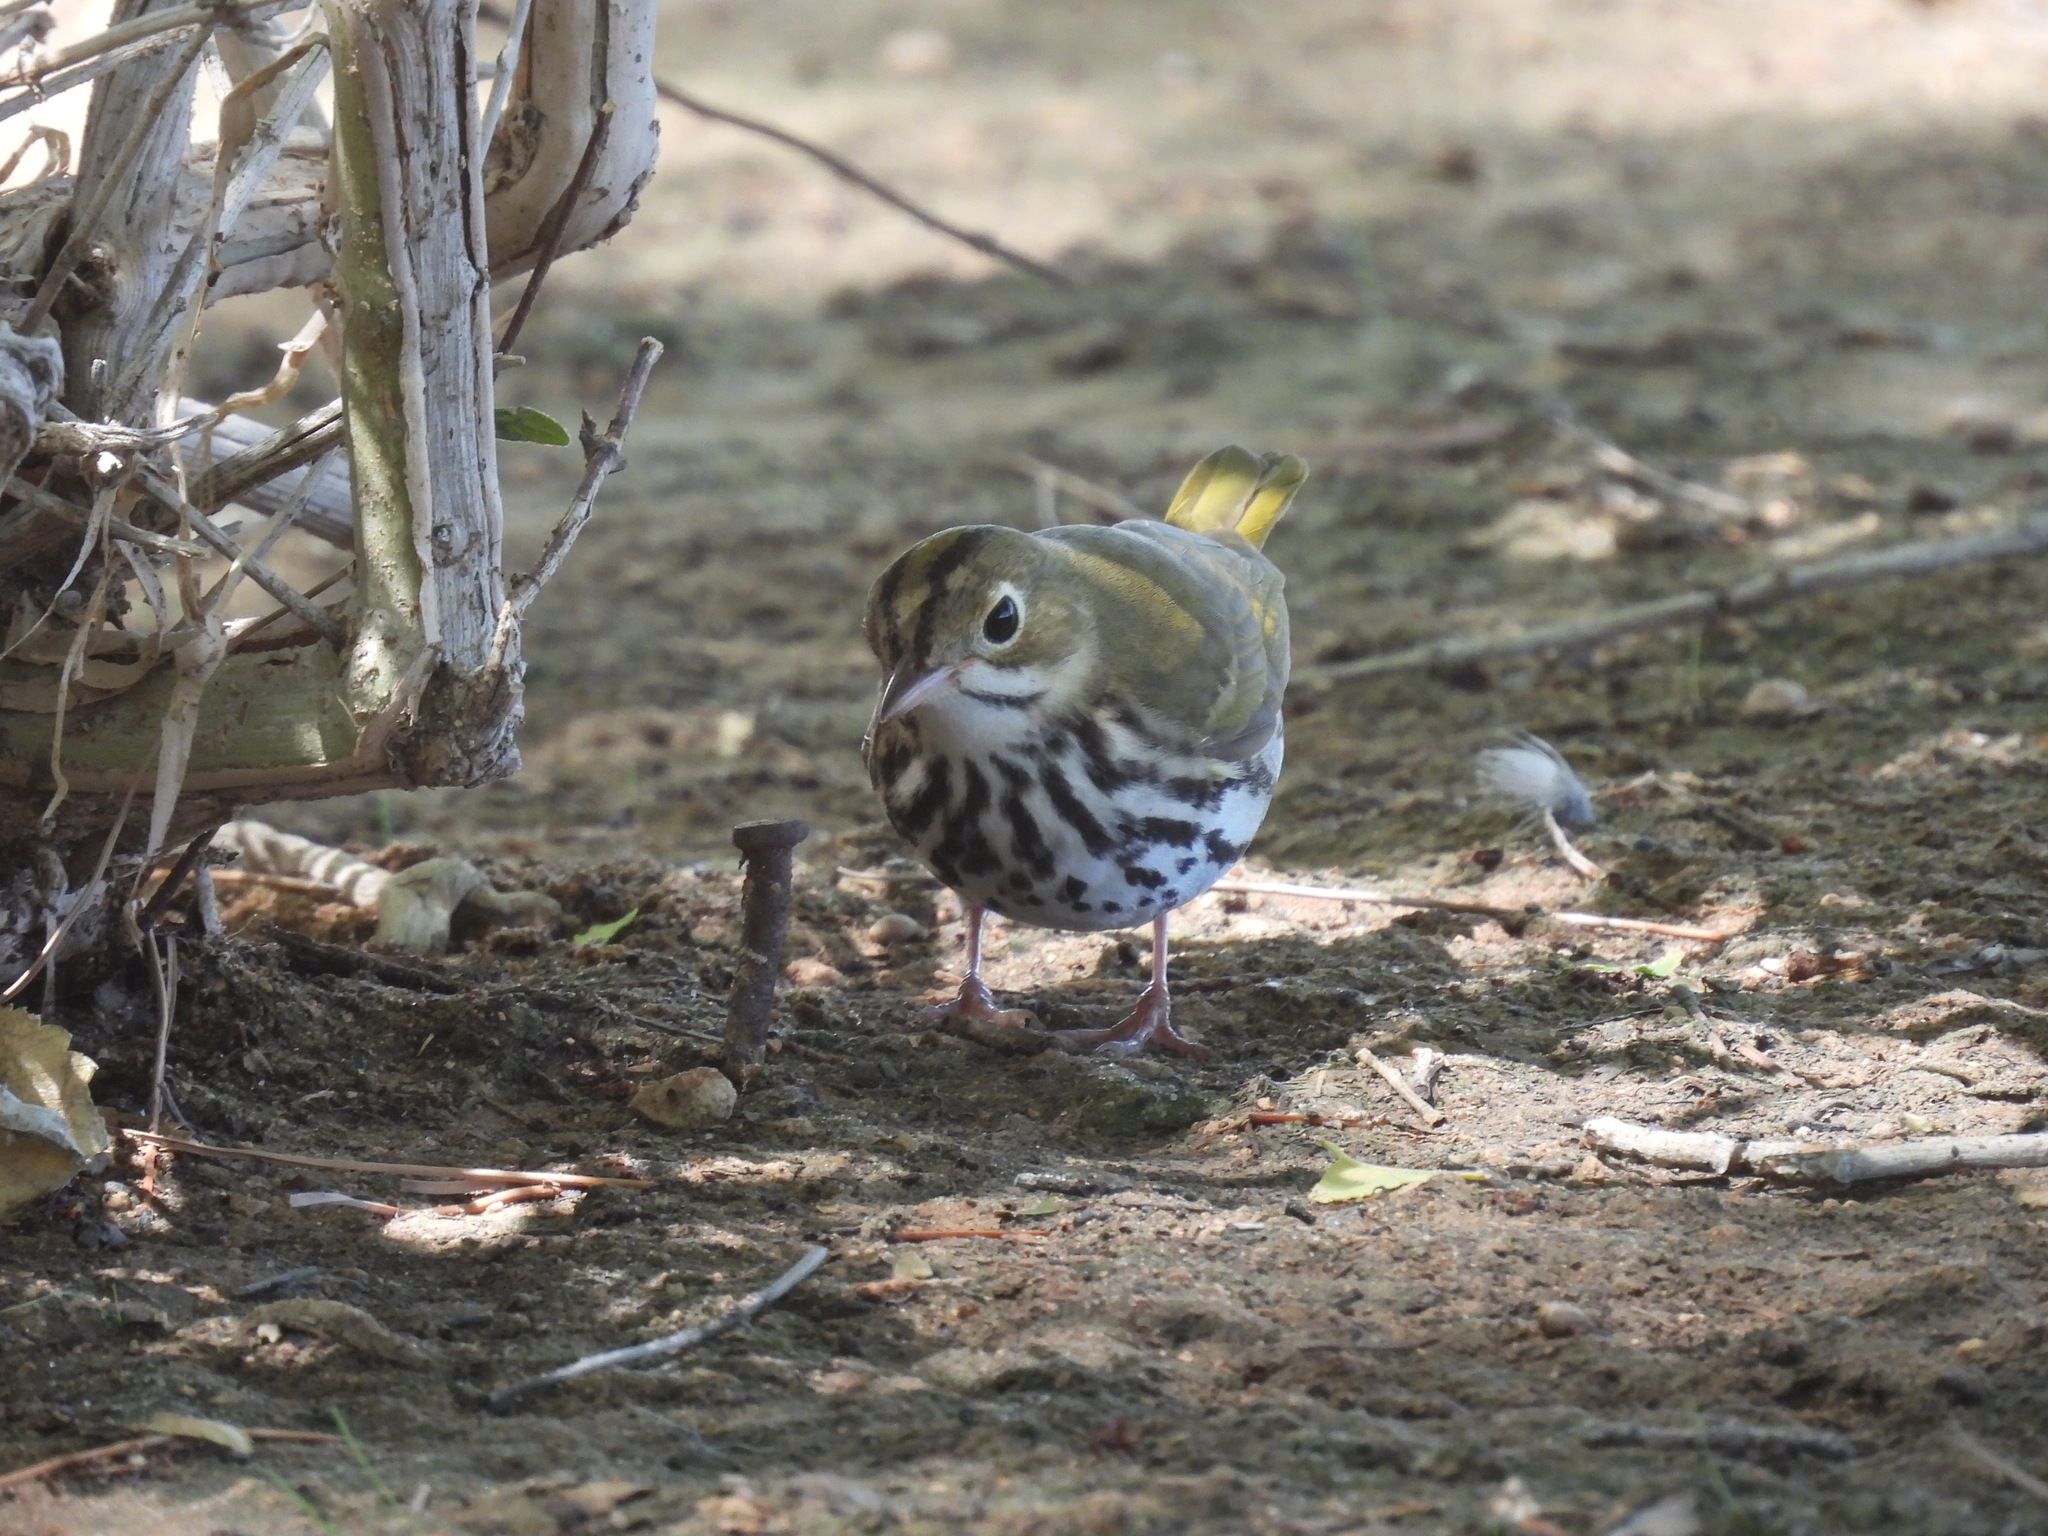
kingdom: Animalia
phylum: Chordata
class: Aves
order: Passeriformes
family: Parulidae
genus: Seiurus
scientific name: Seiurus aurocapilla
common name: Ovenbird
